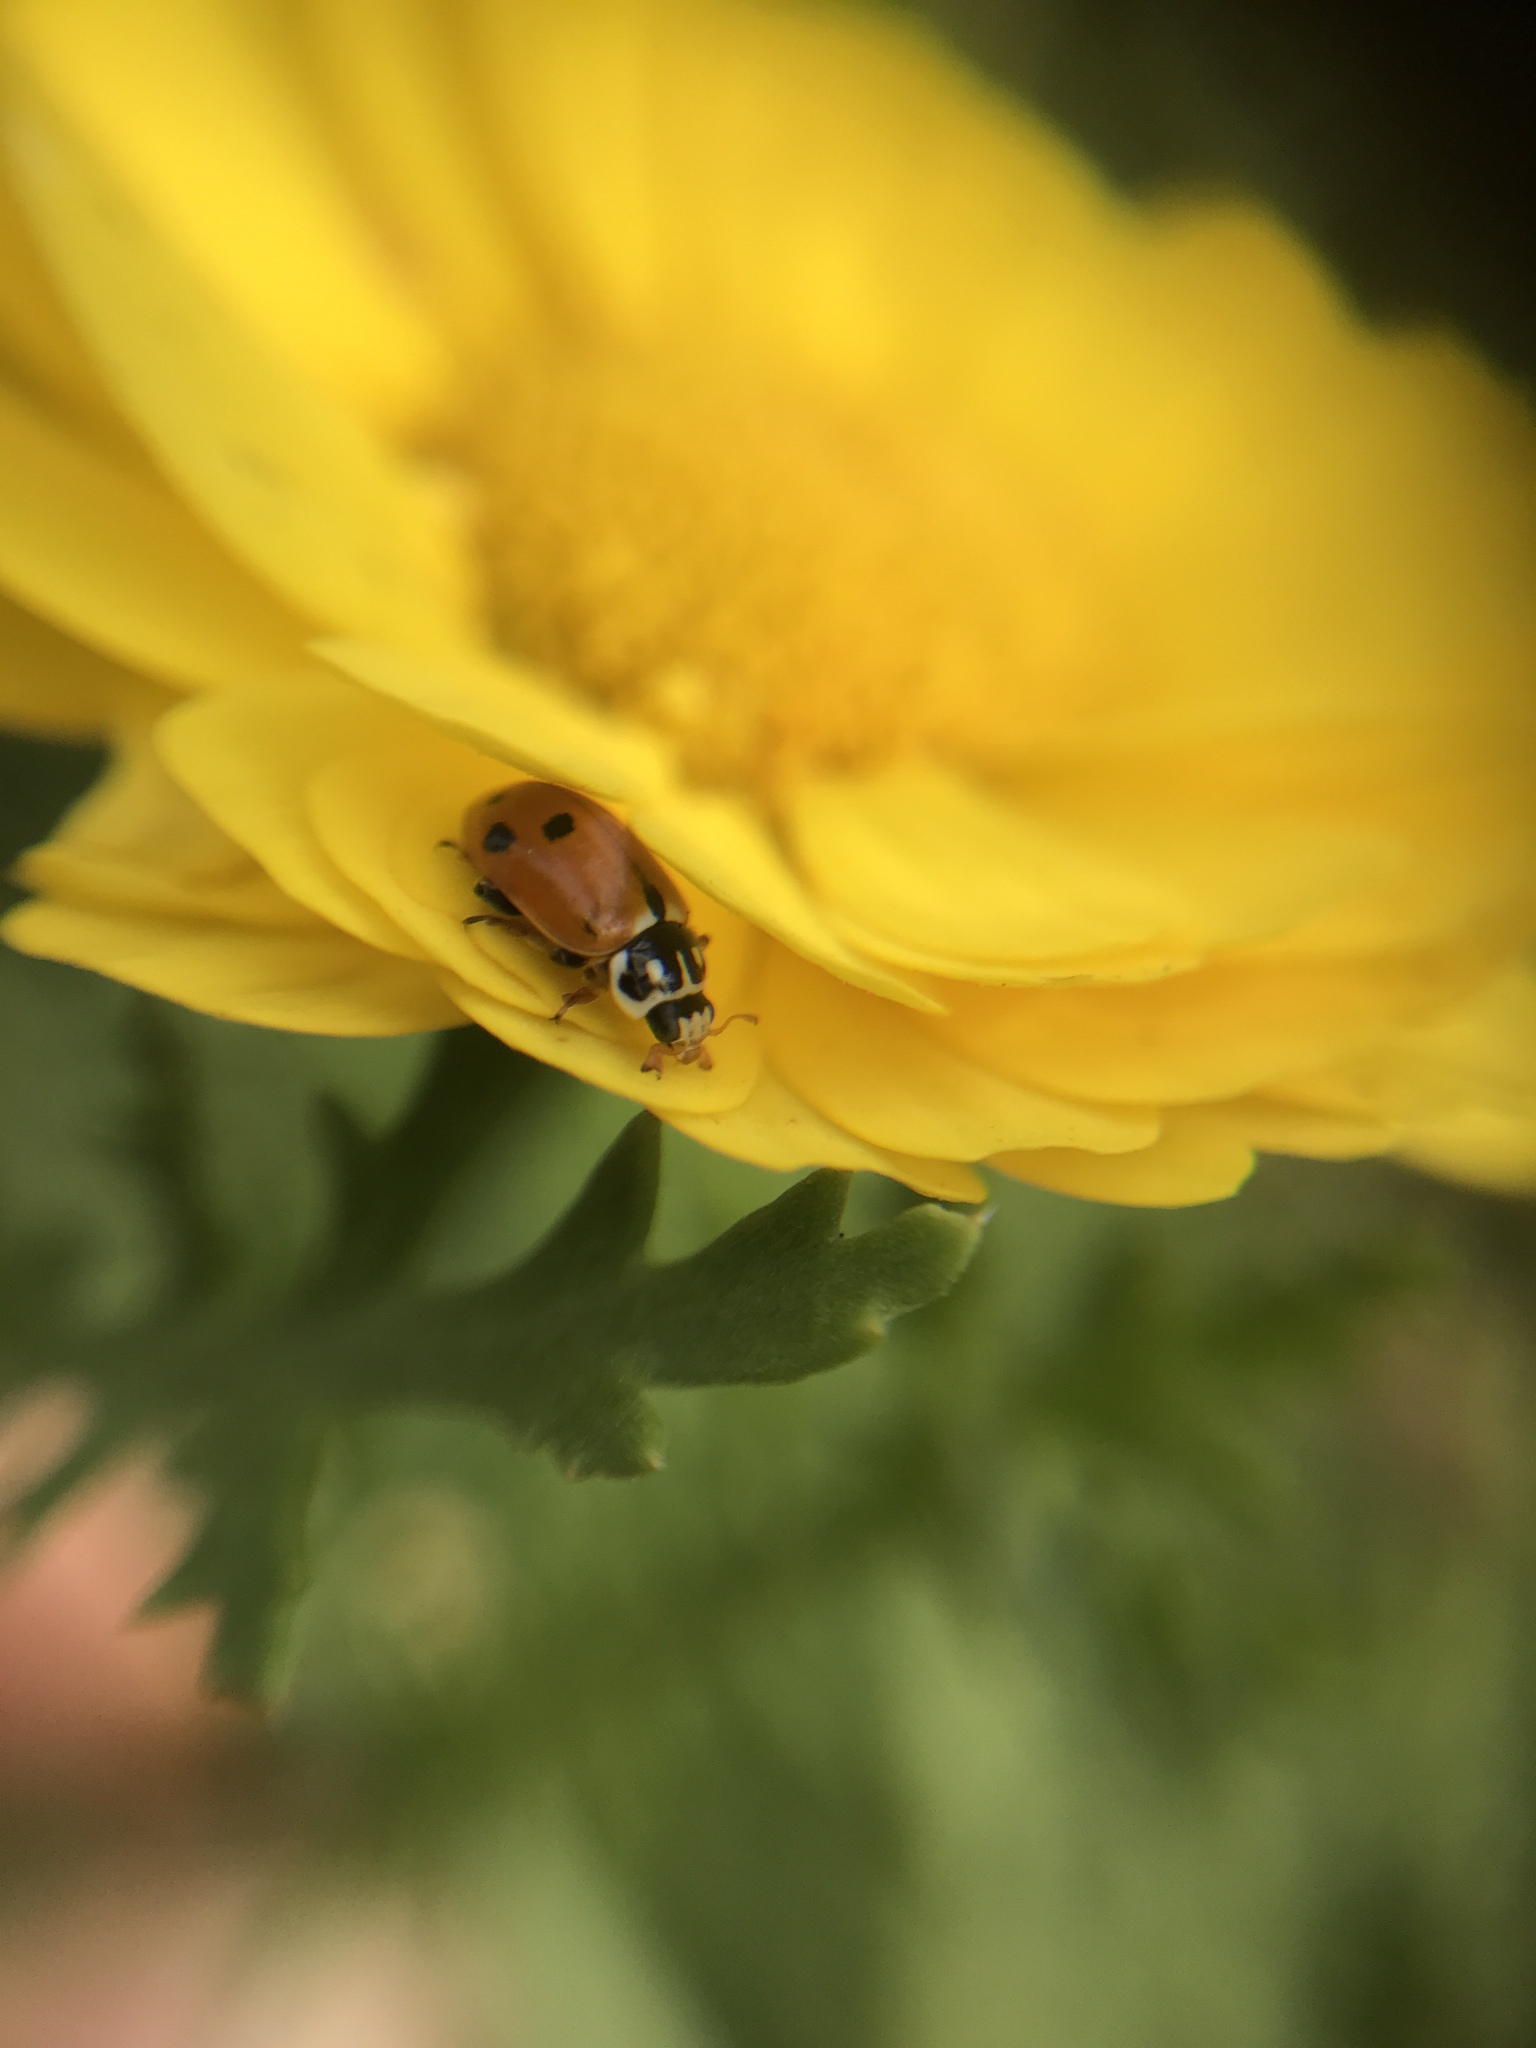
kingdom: Animalia
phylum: Arthropoda
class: Insecta
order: Coleoptera
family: Coccinellidae
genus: Hippodamia
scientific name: Hippodamia variegata
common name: Ladybird beetle
